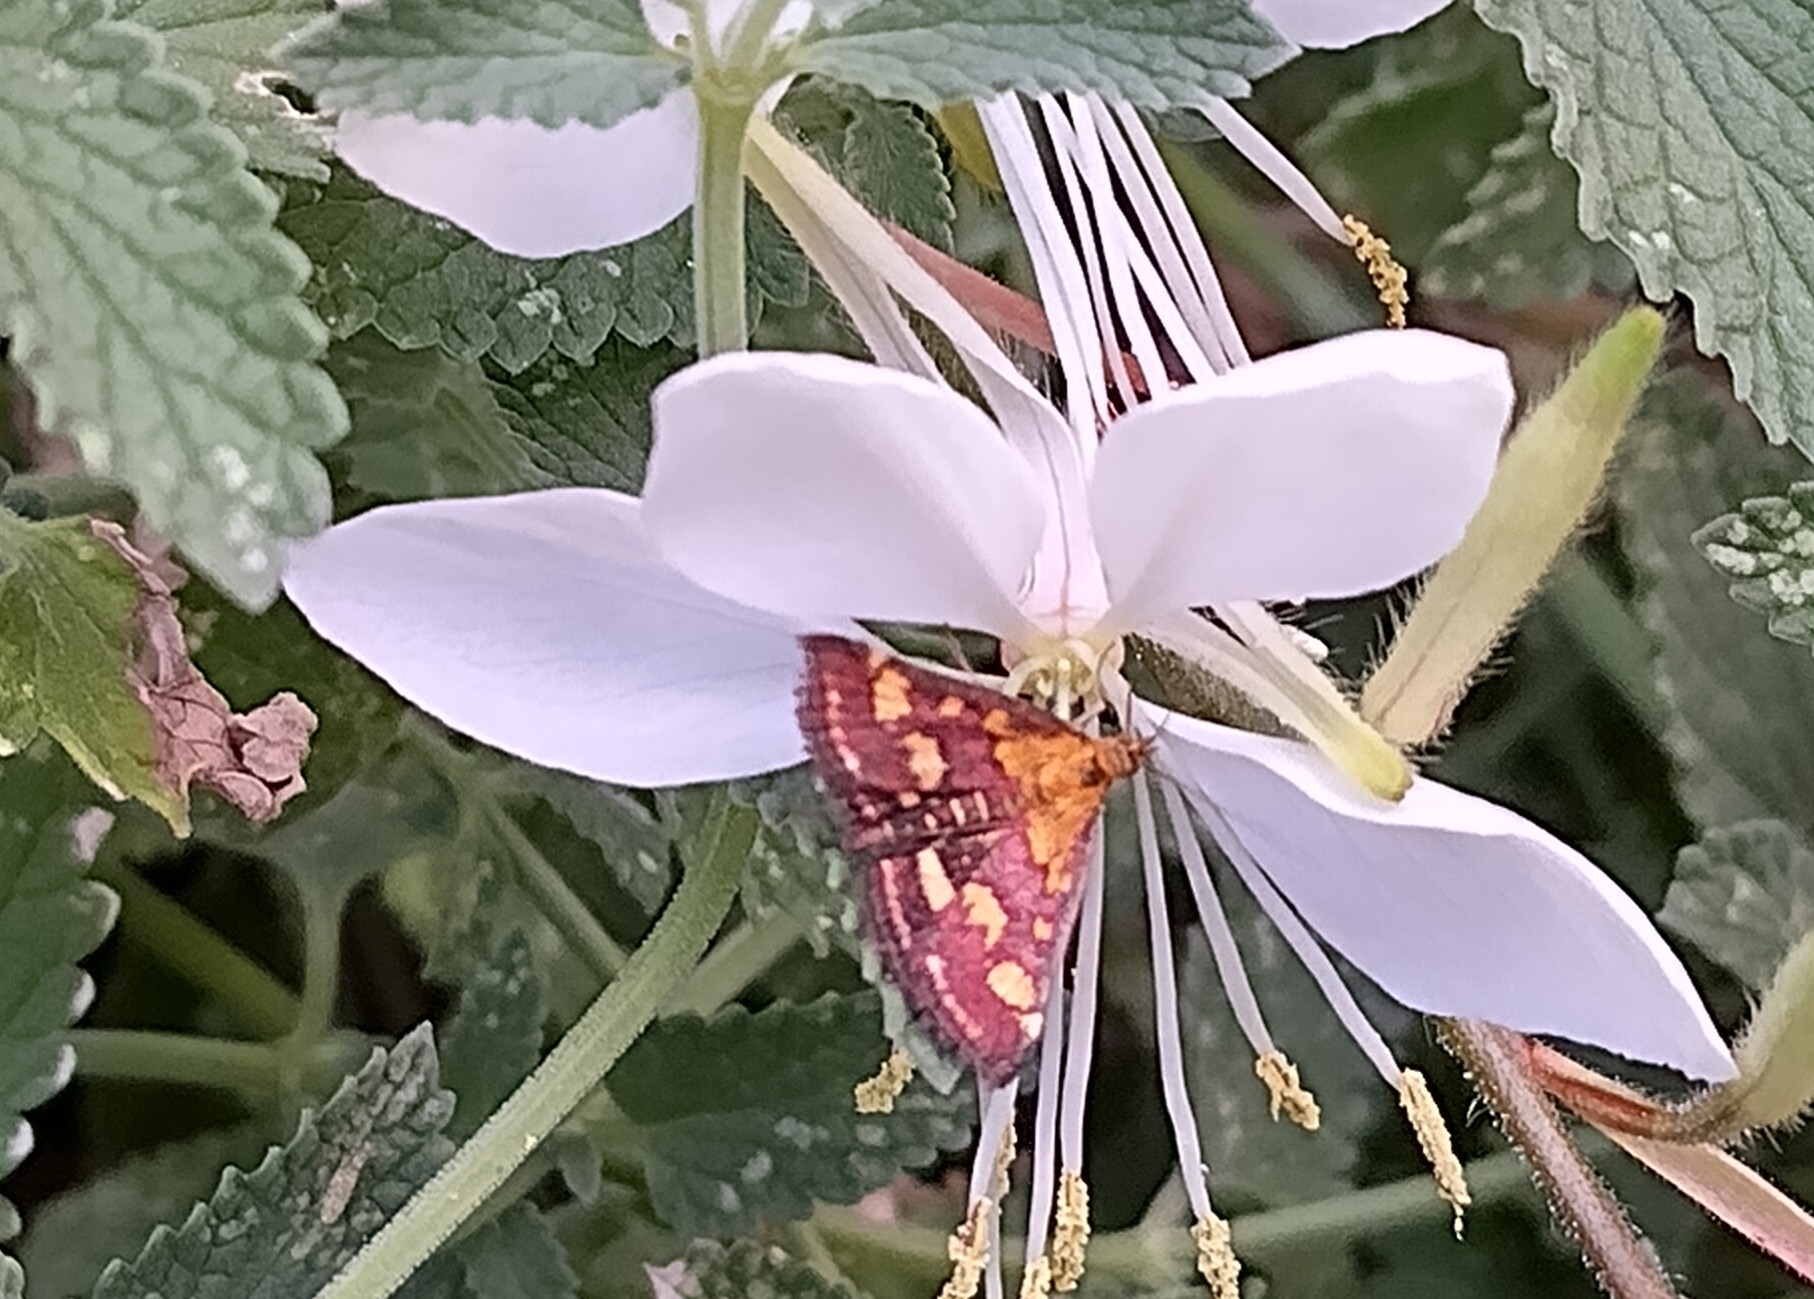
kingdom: Animalia
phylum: Arthropoda
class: Insecta
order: Lepidoptera
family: Crambidae
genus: Pyrausta
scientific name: Pyrausta purpuralis
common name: Common purple & gold
